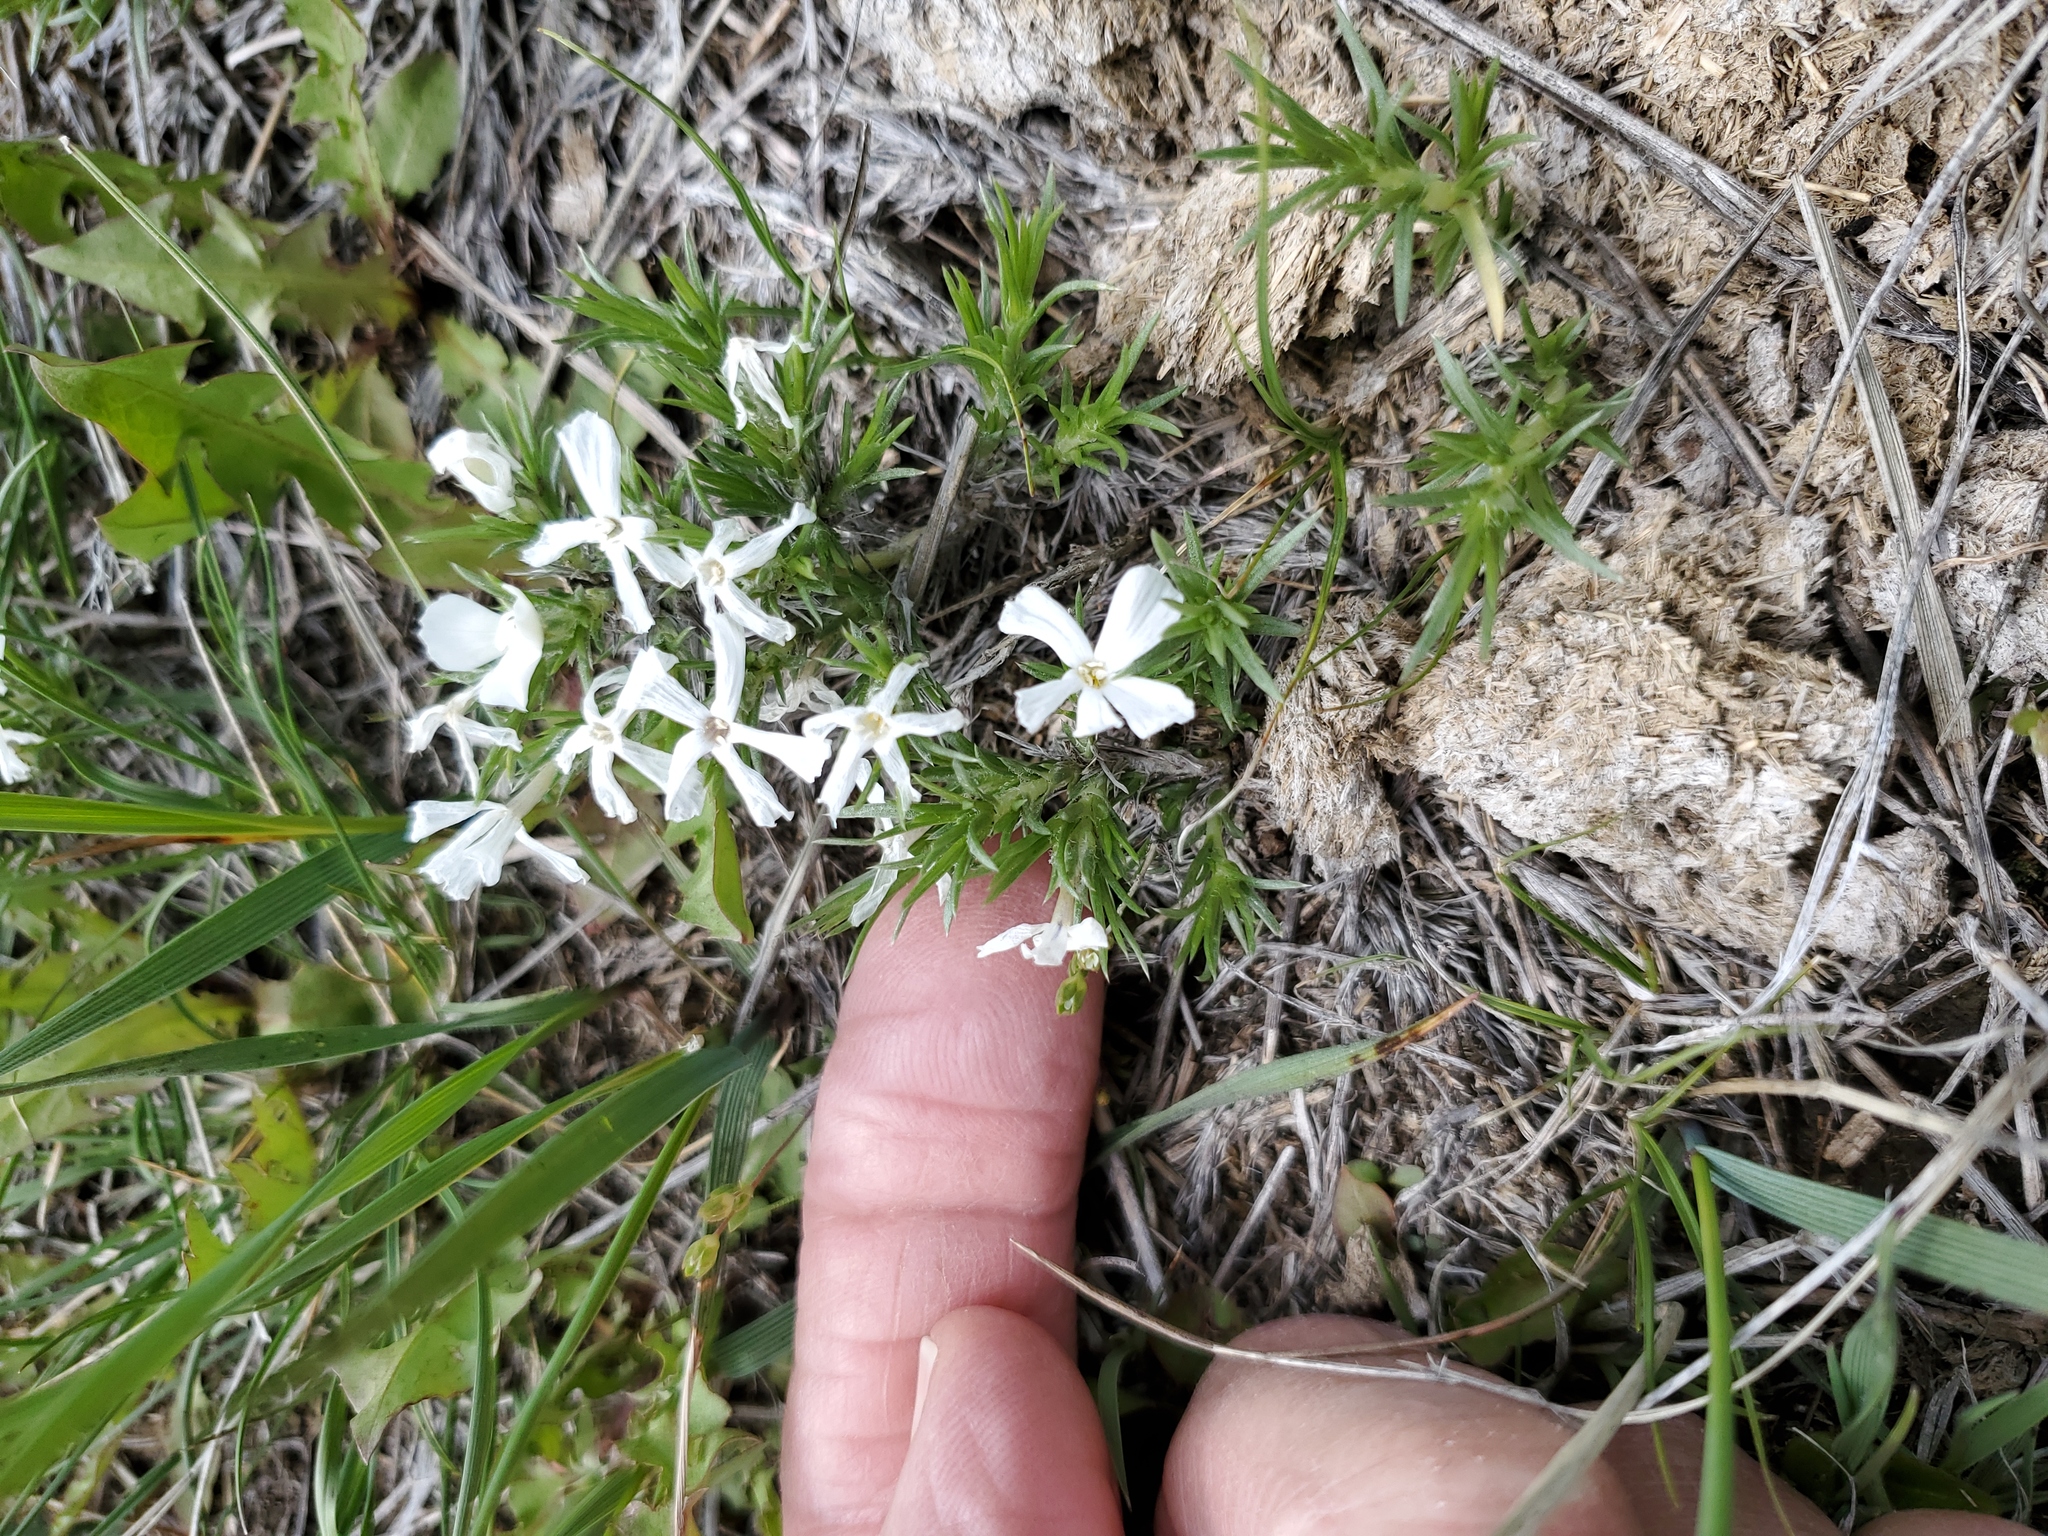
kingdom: Plantae
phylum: Tracheophyta
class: Magnoliopsida
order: Ericales
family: Polemoniaceae
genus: Phlox
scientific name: Phlox hoodii
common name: Moss phlox
